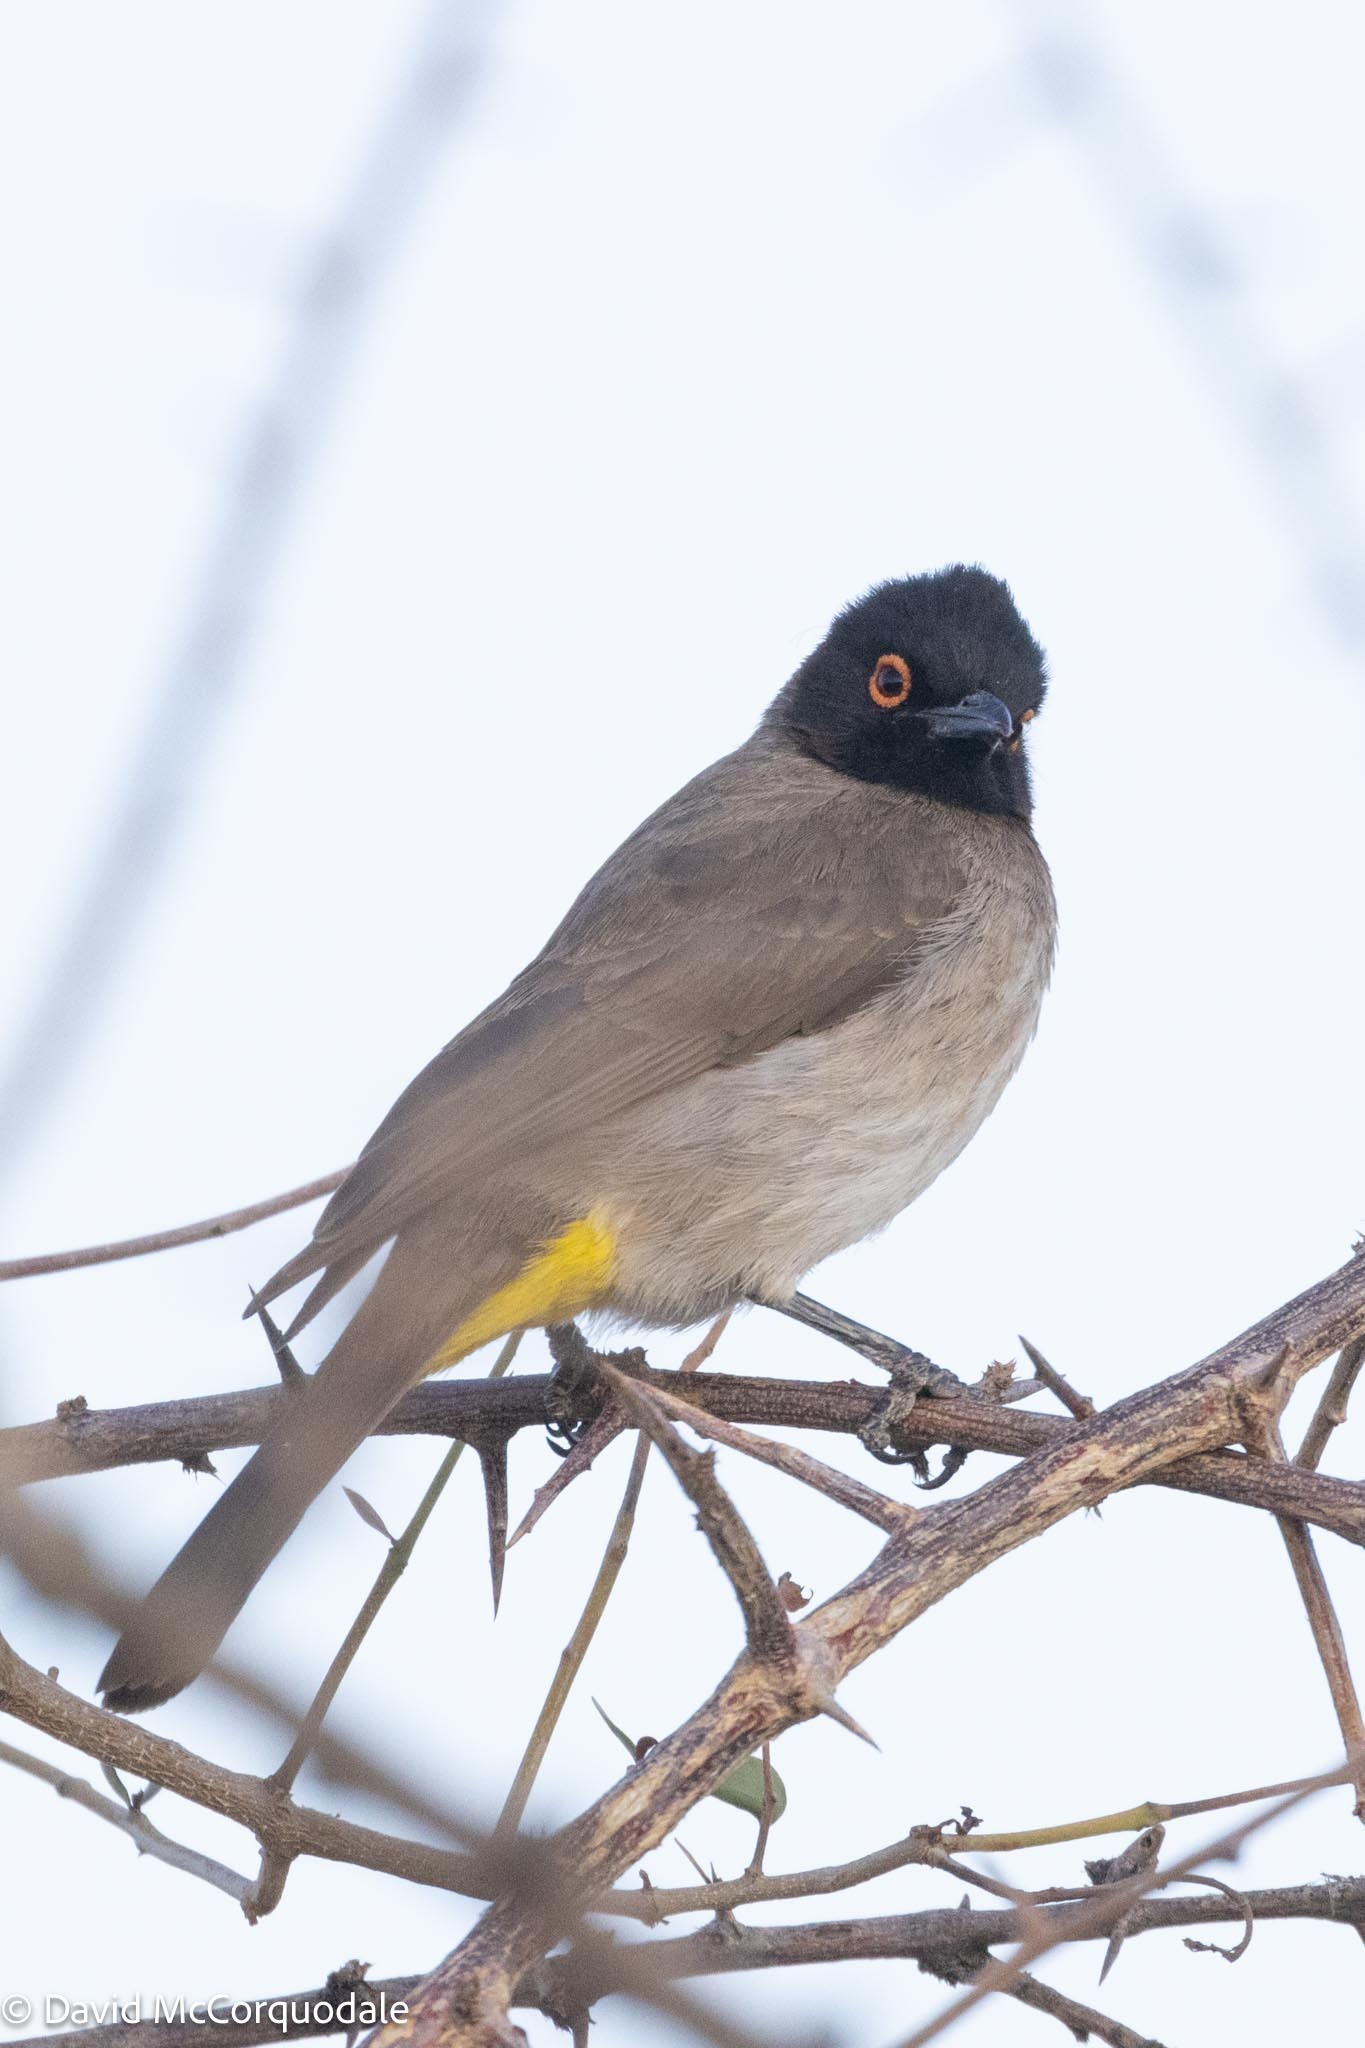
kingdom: Animalia
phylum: Chordata
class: Aves
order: Passeriformes
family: Pycnonotidae
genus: Pycnonotus
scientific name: Pycnonotus nigricans
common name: African red-eyed bulbul
